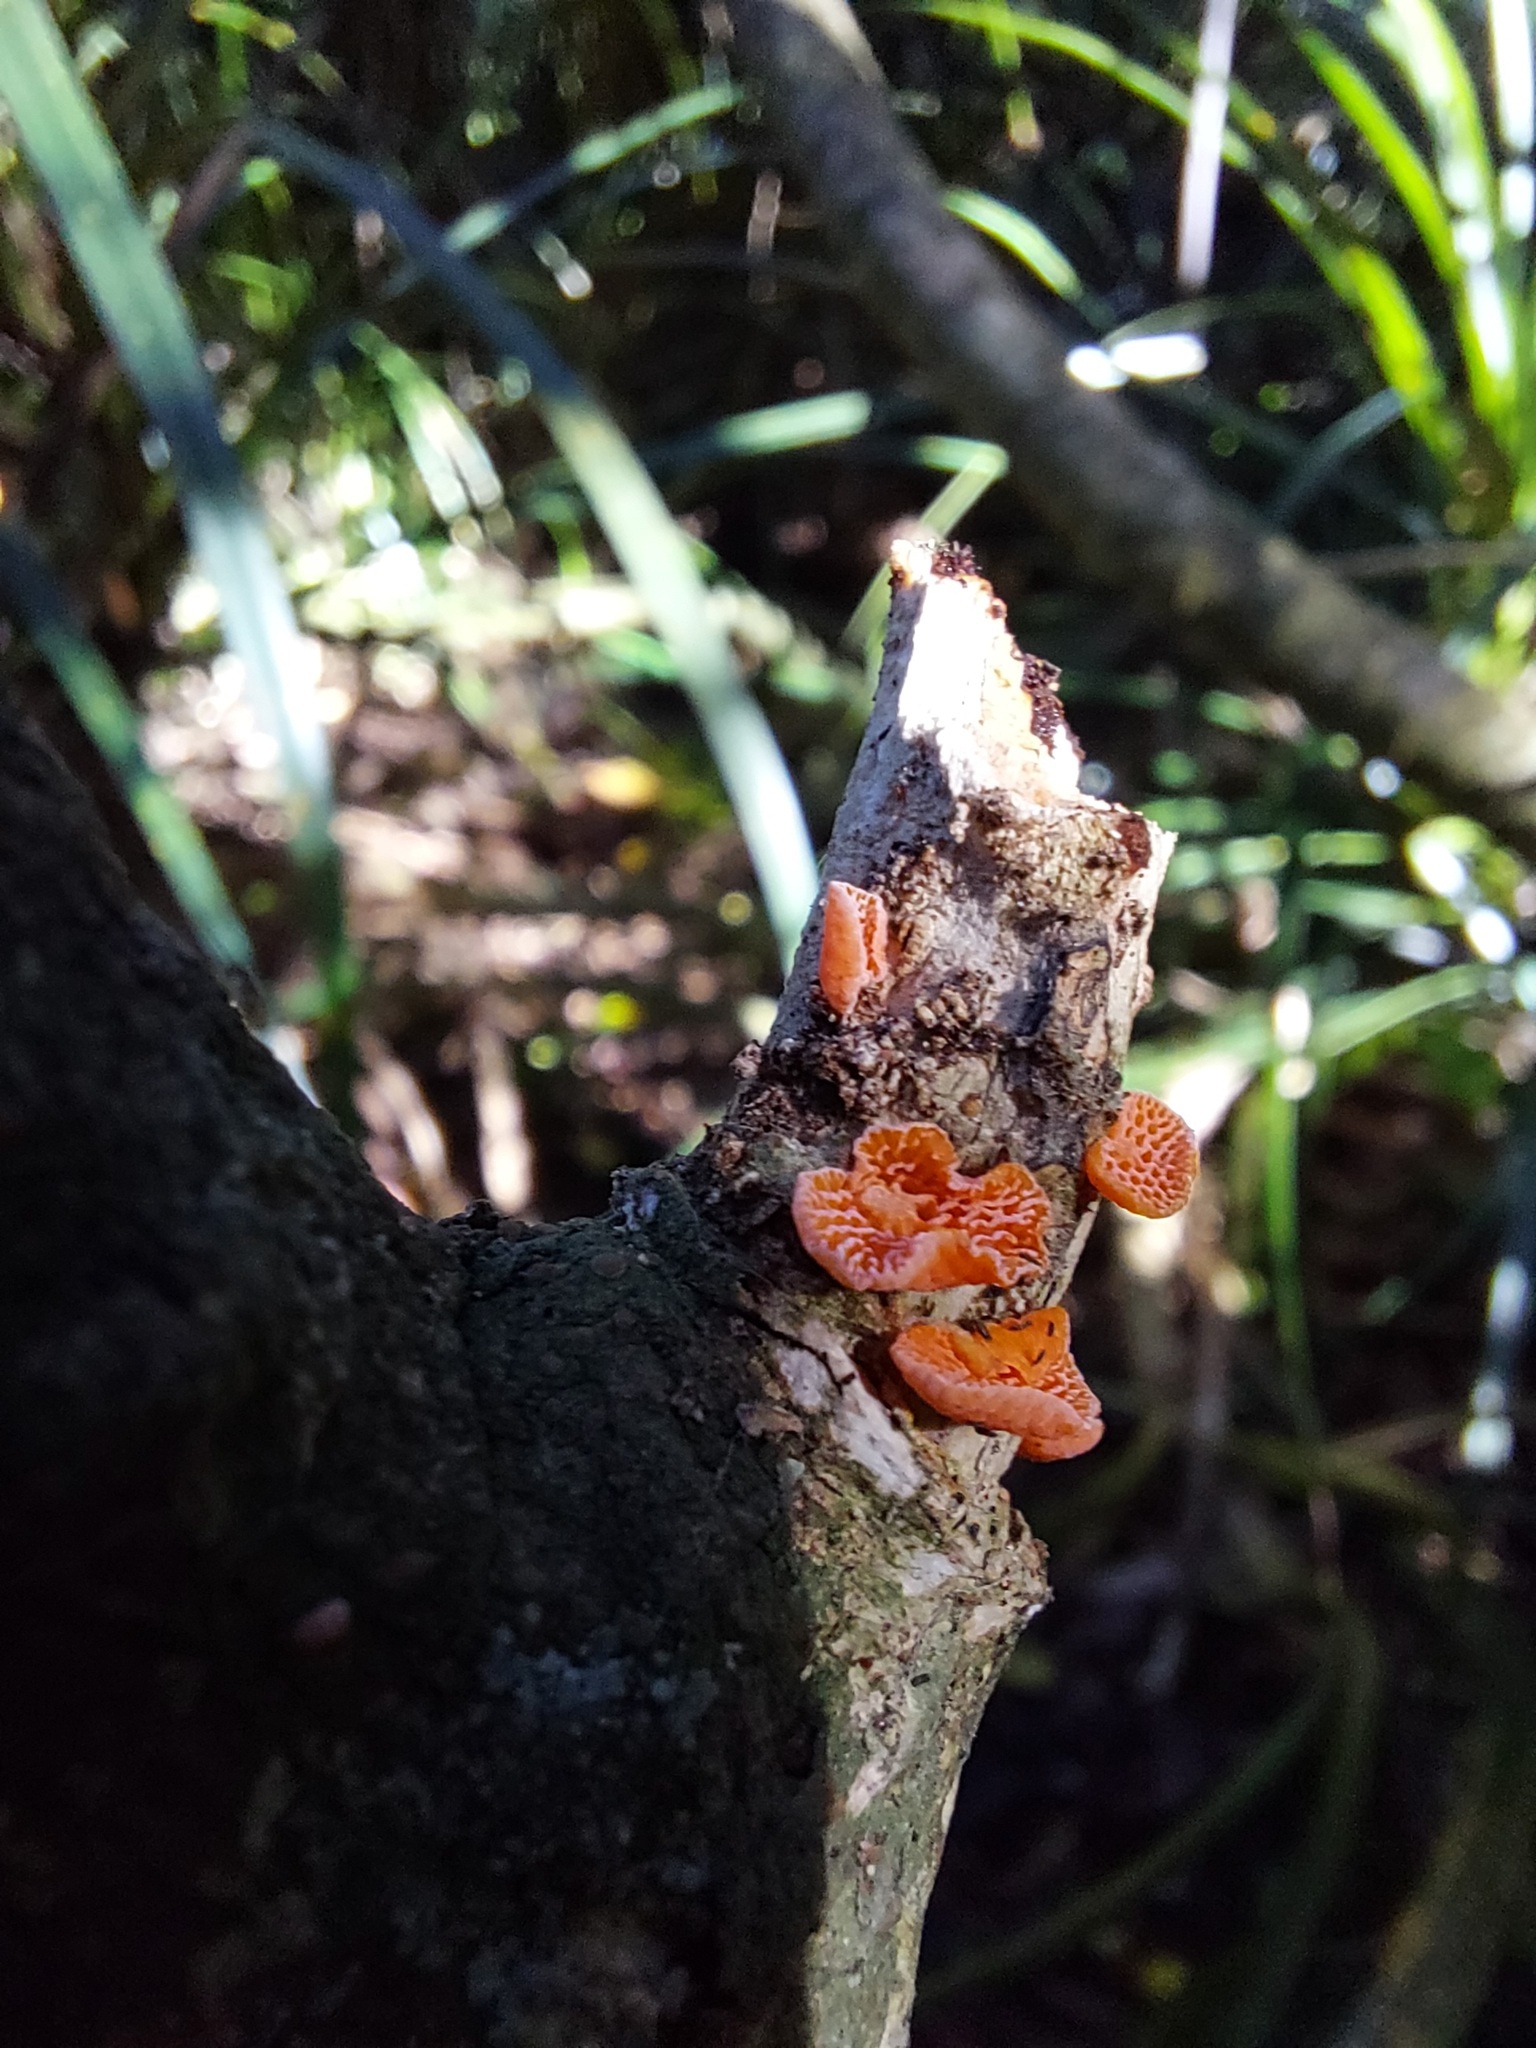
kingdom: Fungi
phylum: Basidiomycota
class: Agaricomycetes
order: Agaricales
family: Mycenaceae
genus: Favolaschia
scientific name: Favolaschia claudopus
